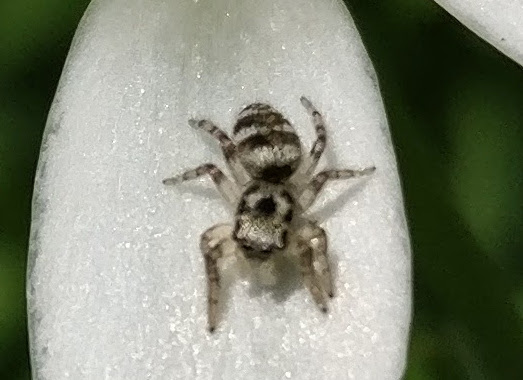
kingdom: Animalia
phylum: Arthropoda
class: Arachnida
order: Araneae
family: Salticidae
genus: Salticus
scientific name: Salticus scenicus
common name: Zebra jumper
